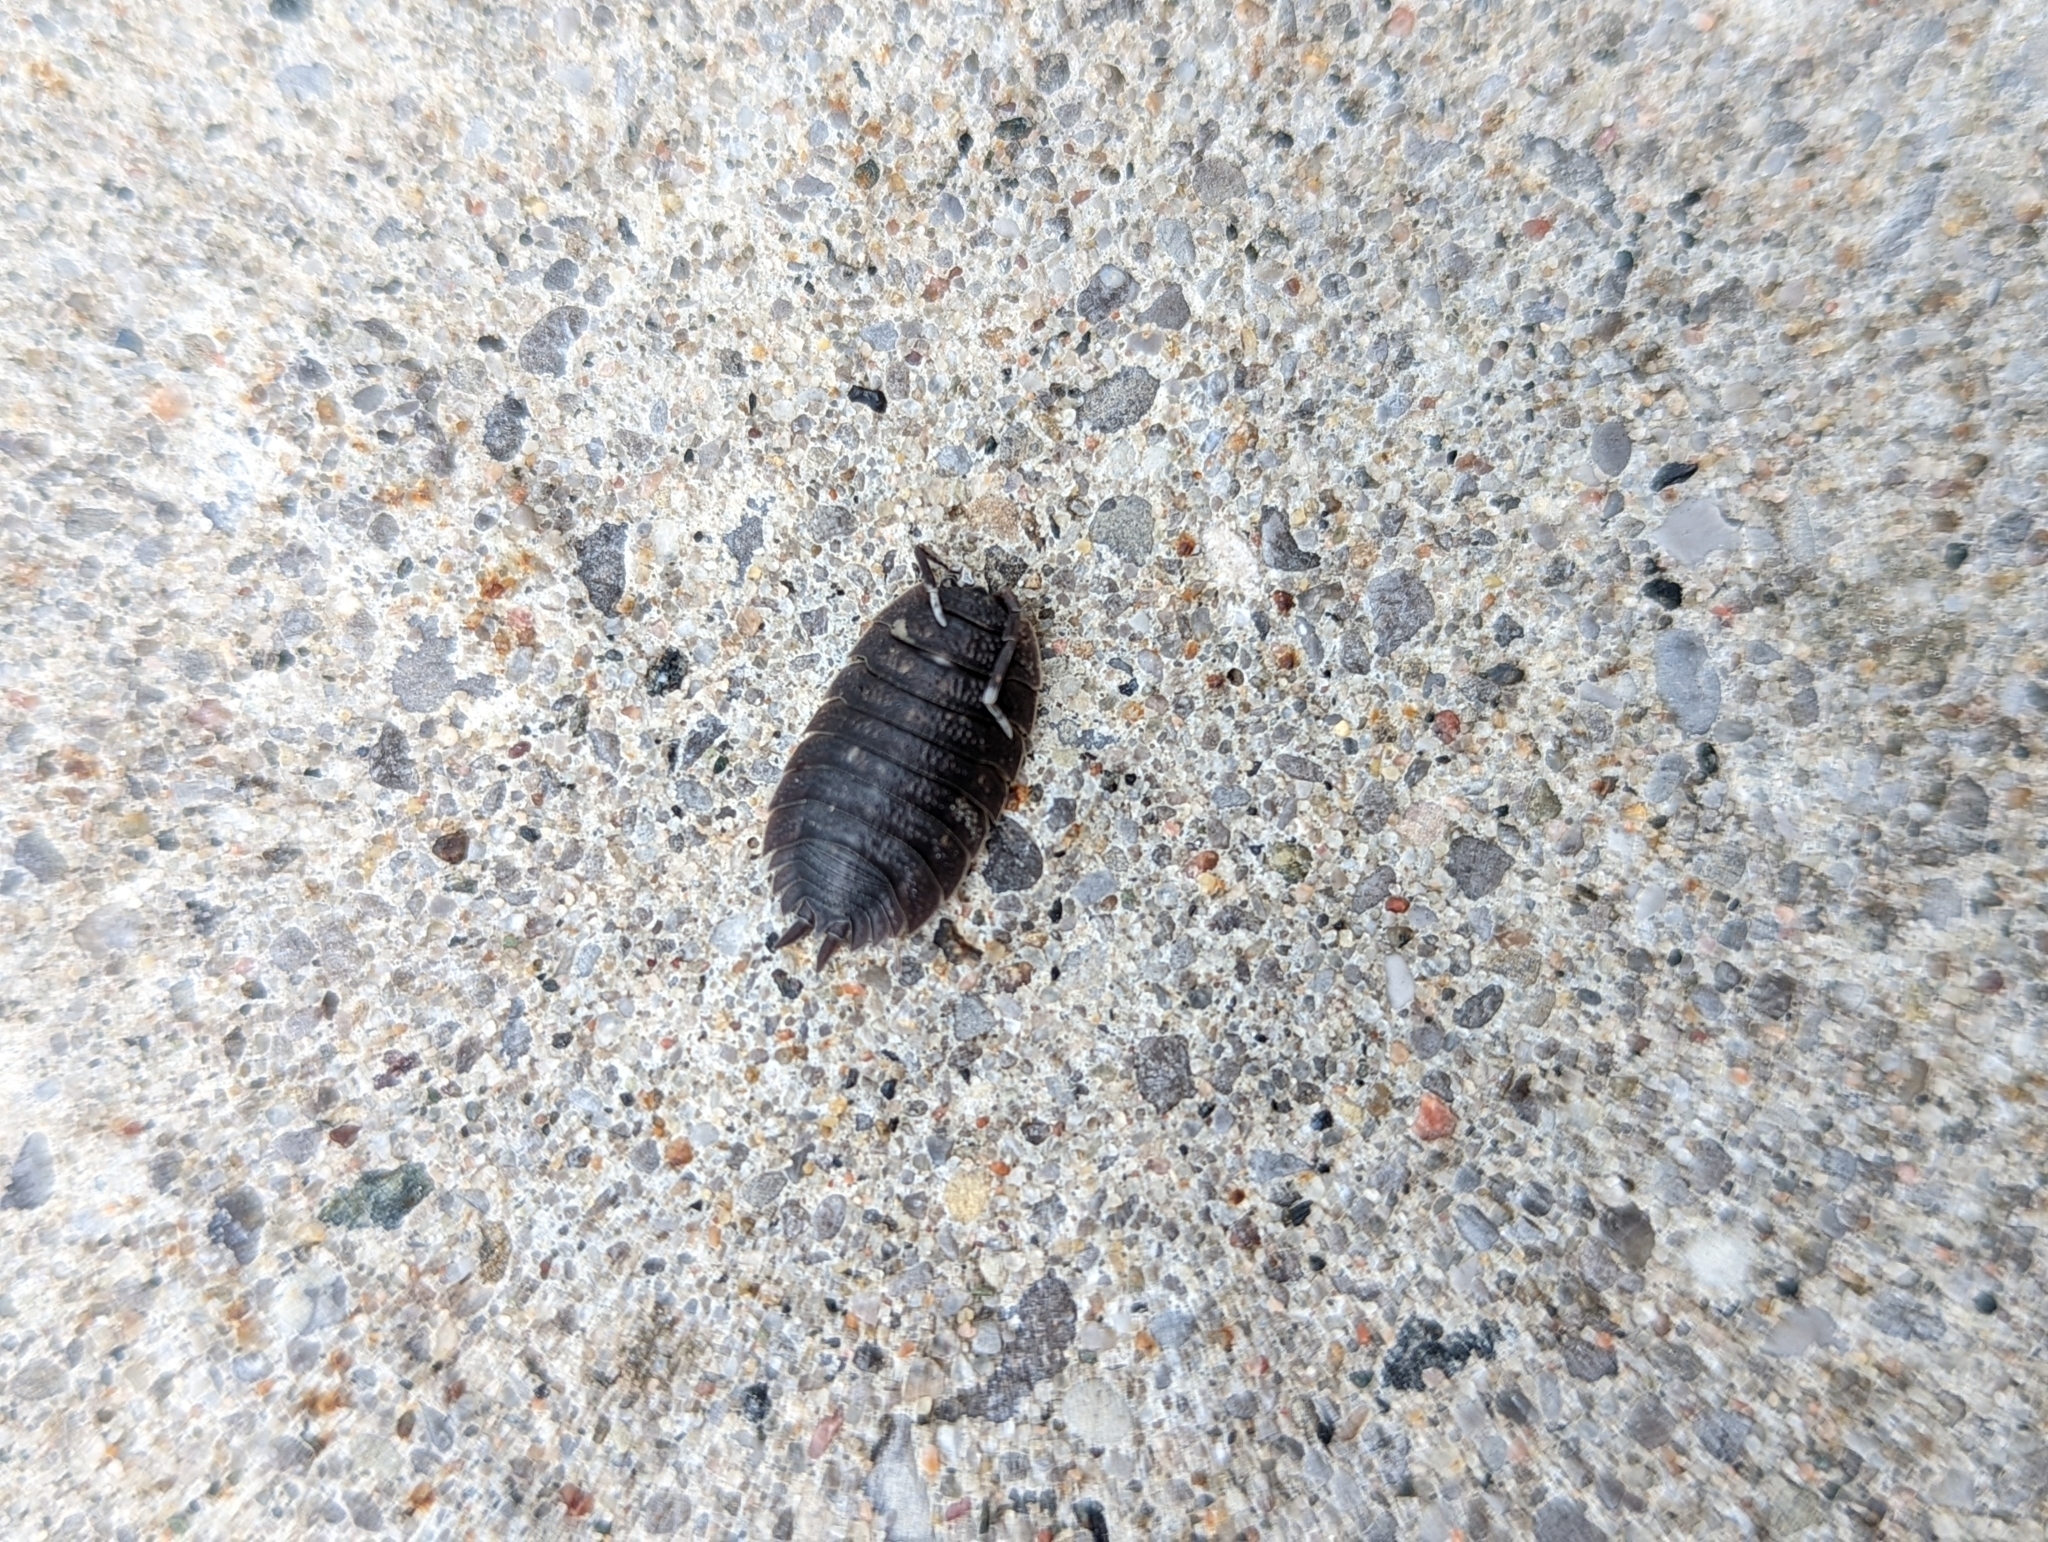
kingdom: Animalia
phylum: Arthropoda
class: Malacostraca
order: Isopoda
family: Porcellionidae
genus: Porcellio
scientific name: Porcellio scaber
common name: Common rough woodlouse
